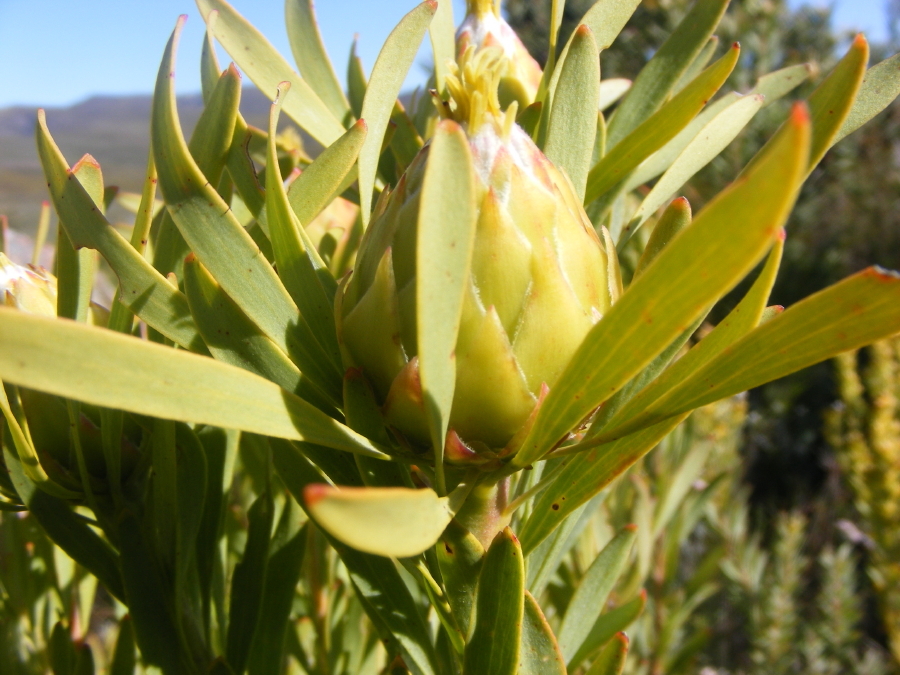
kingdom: Plantae
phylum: Tracheophyta
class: Magnoliopsida
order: Proteales
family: Proteaceae
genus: Leucadendron
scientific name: Leucadendron rubrum
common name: Spinning top
